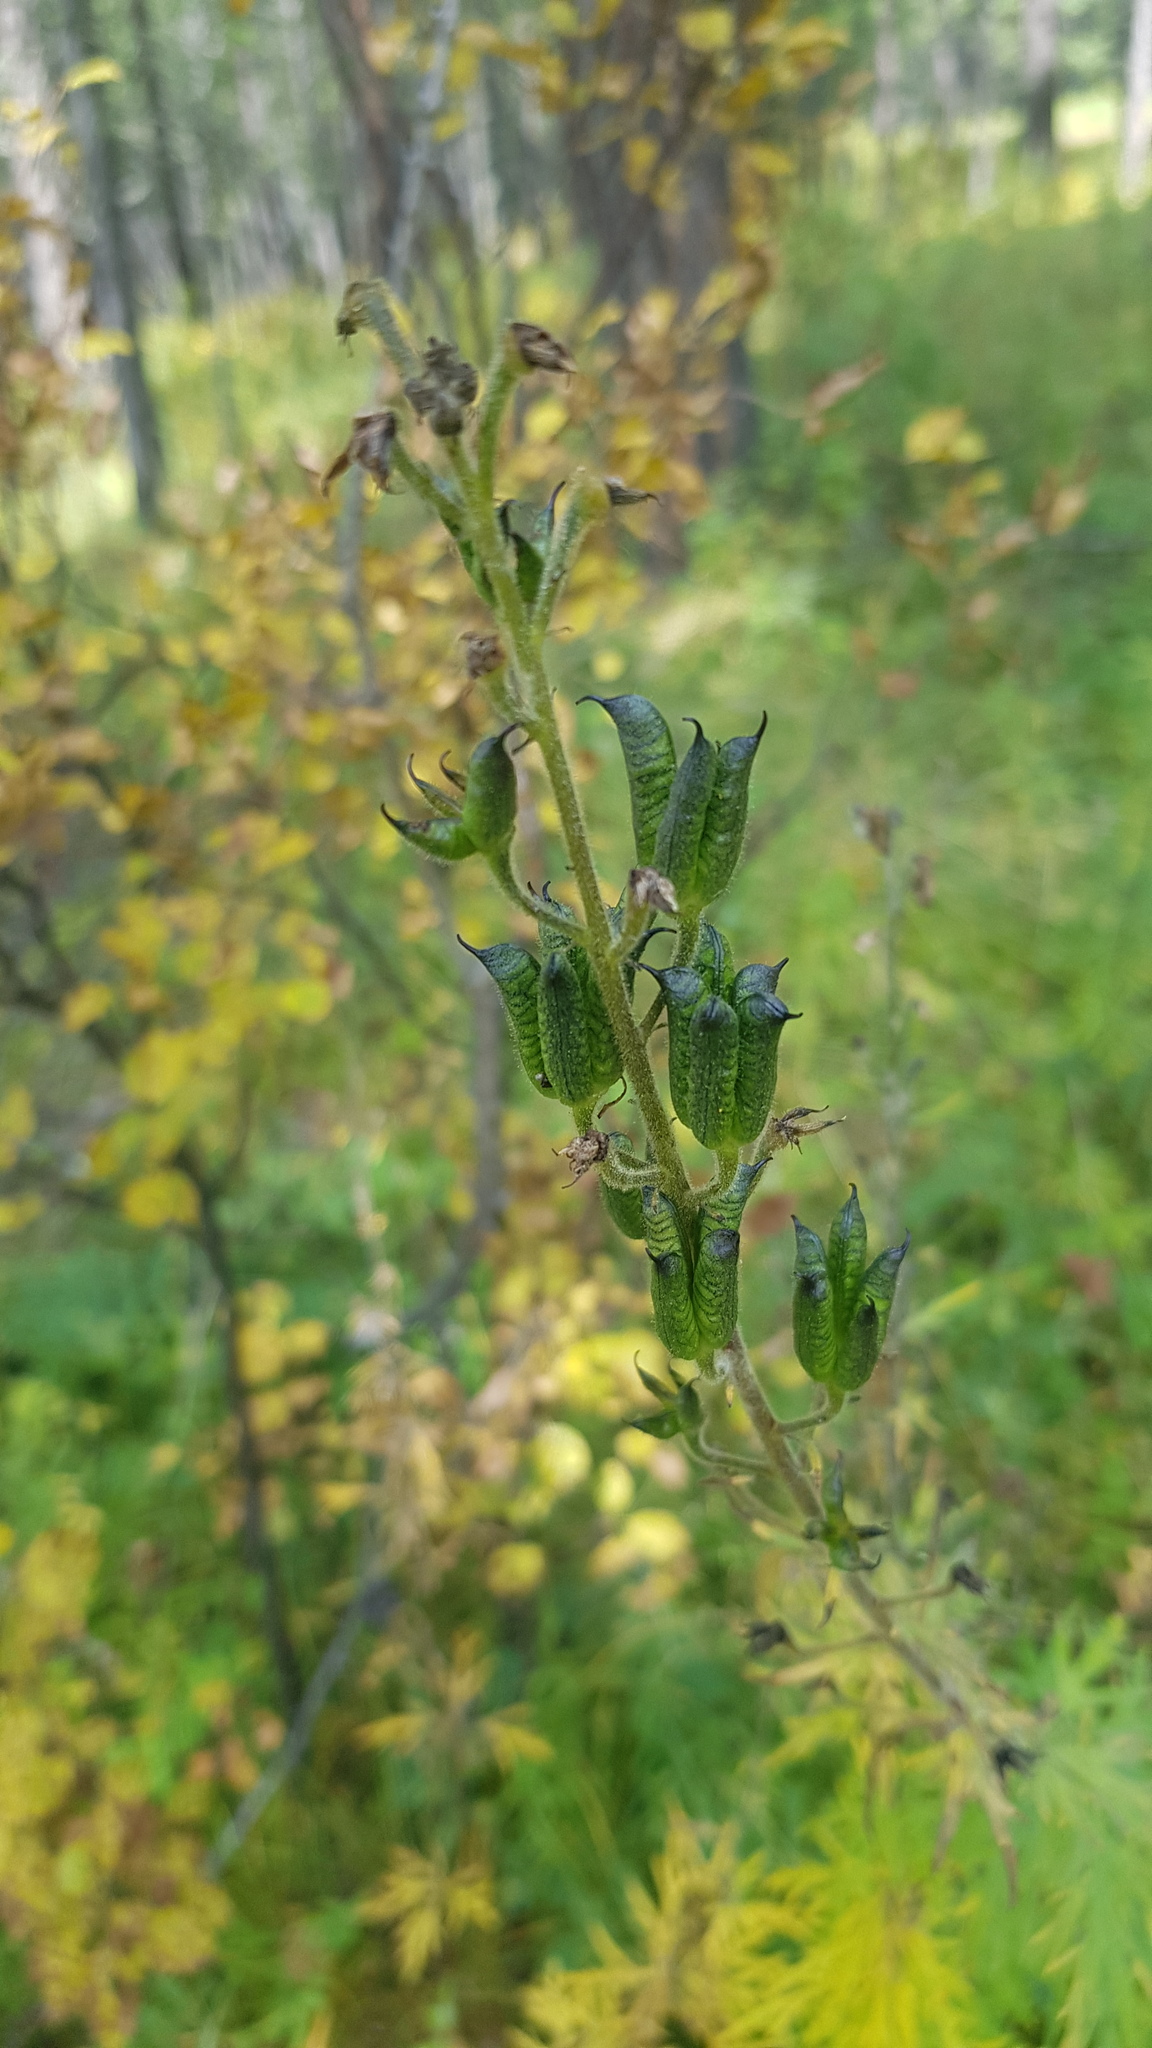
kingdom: Plantae
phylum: Tracheophyta
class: Magnoliopsida
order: Ranunculales
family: Ranunculaceae
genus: Aconitum
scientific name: Aconitum septentrionale
